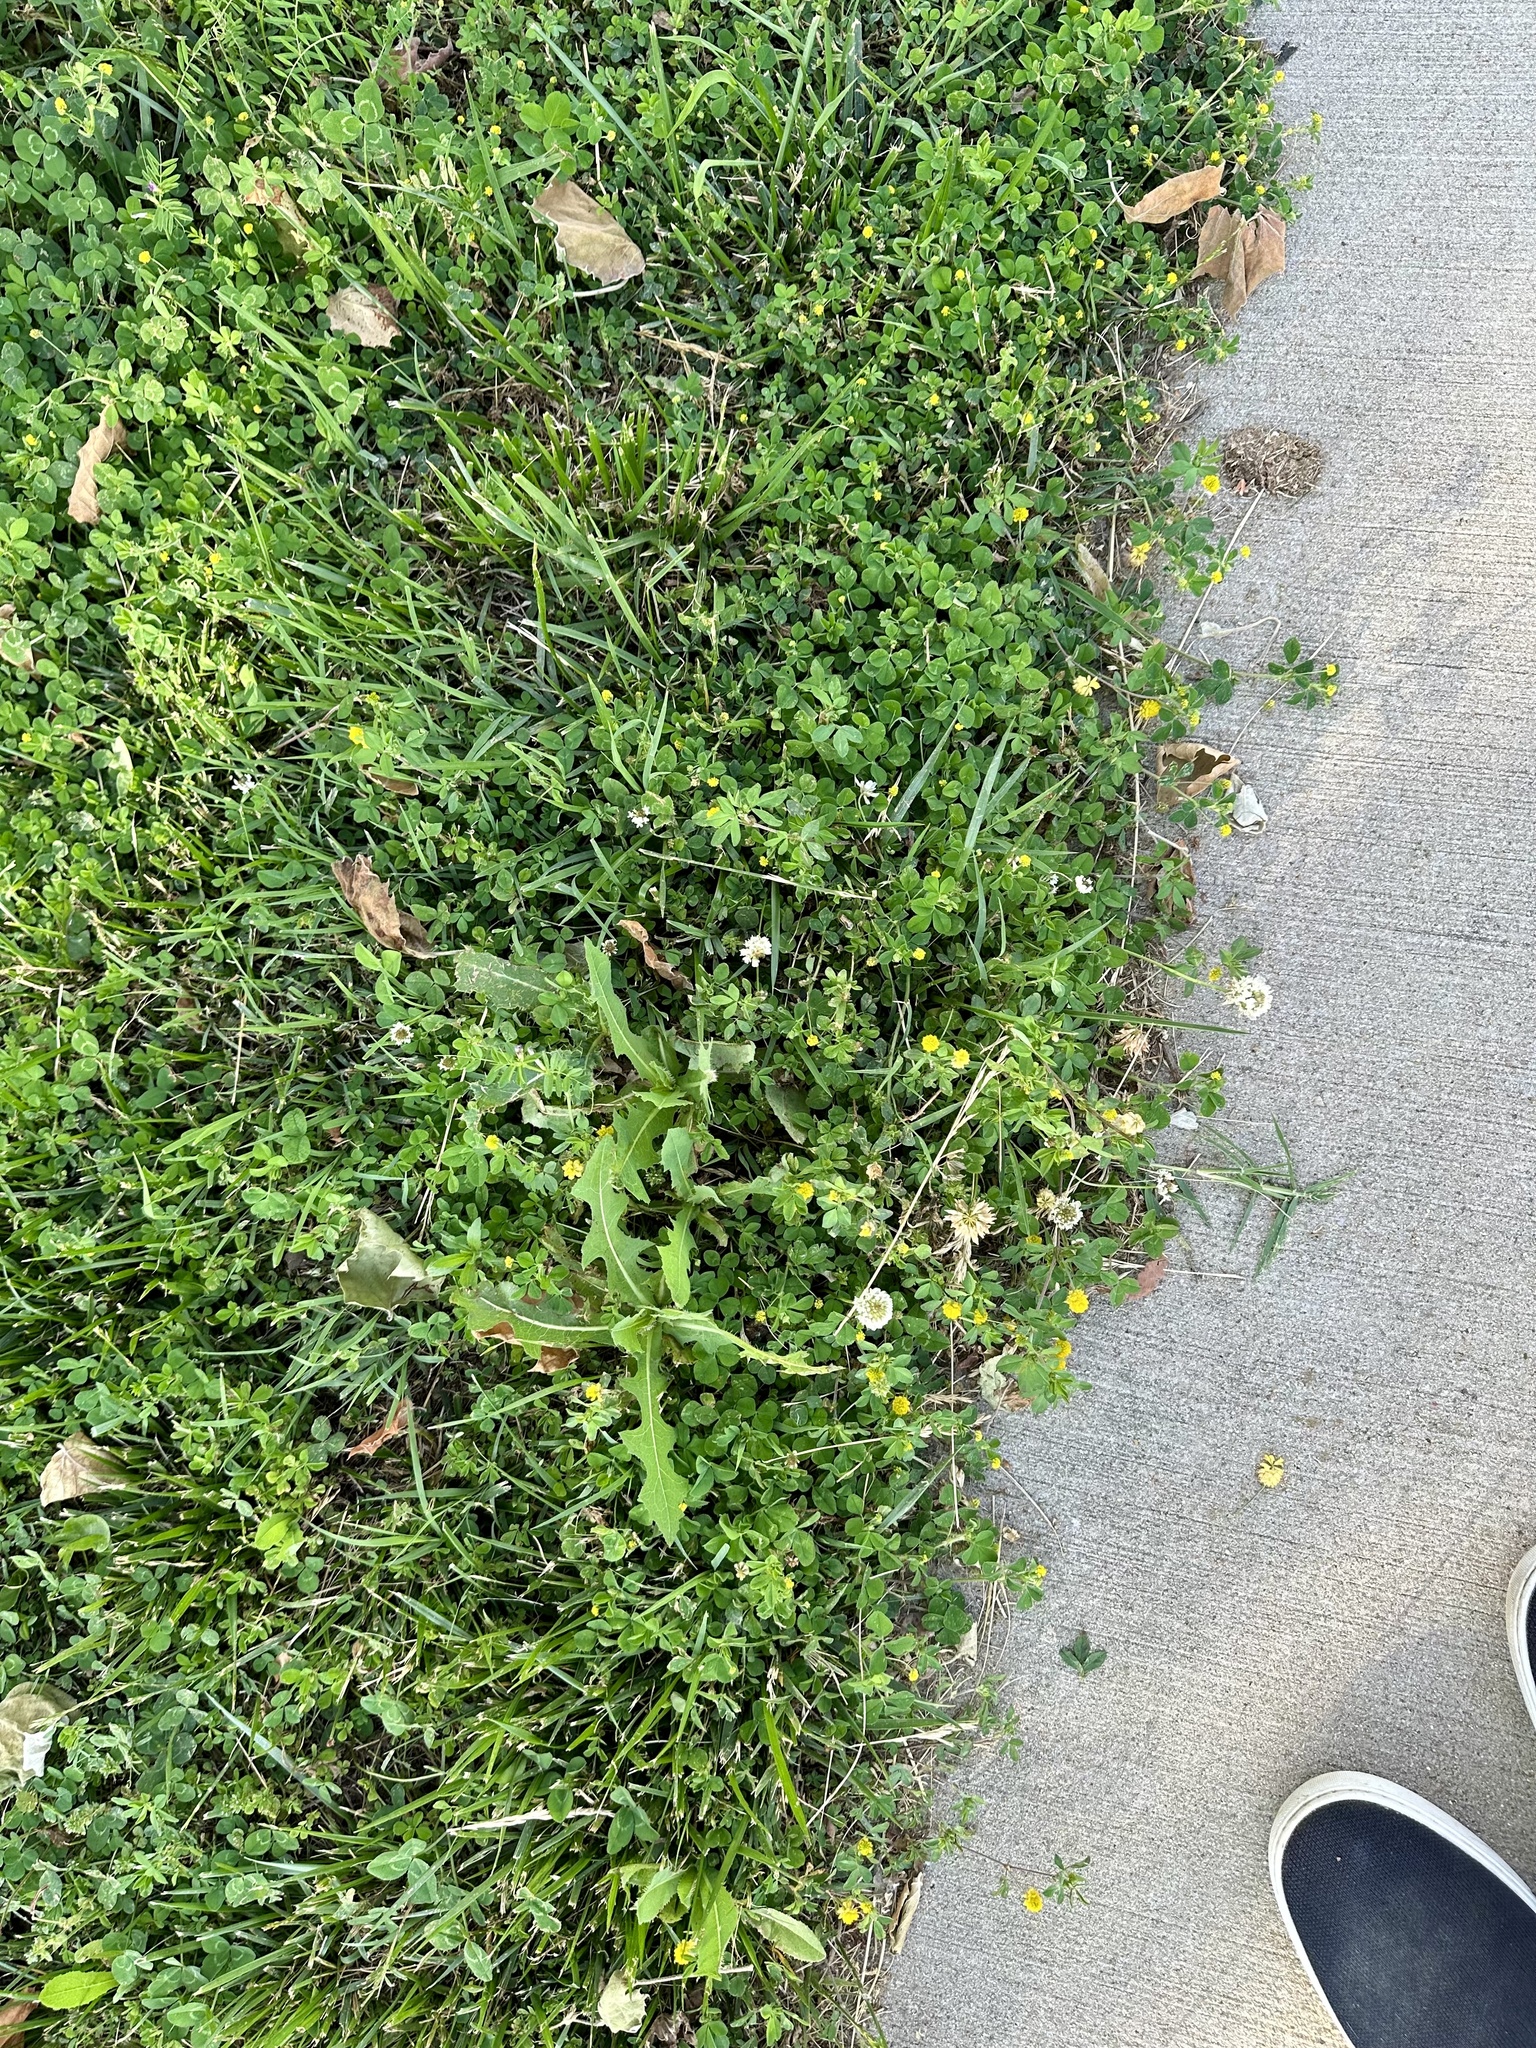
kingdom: Plantae
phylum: Tracheophyta
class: Magnoliopsida
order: Fabales
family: Fabaceae
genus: Trifolium
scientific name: Trifolium campestre
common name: Field clover
